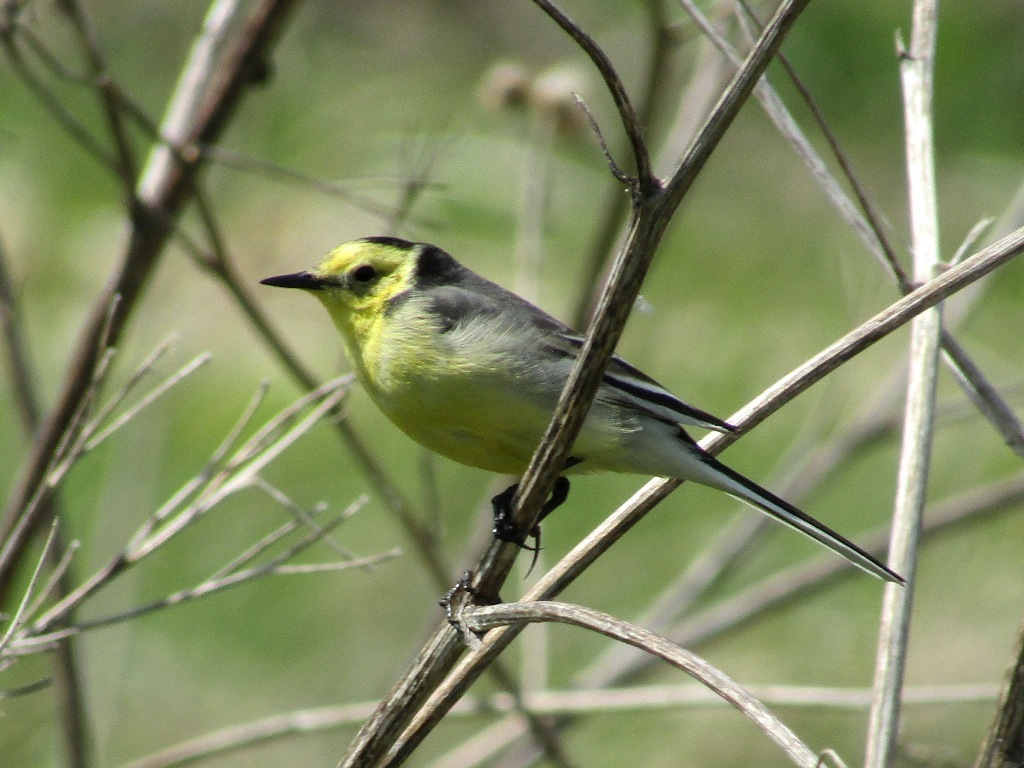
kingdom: Animalia
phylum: Chordata
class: Aves
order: Passeriformes
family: Motacillidae
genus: Motacilla
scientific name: Motacilla citreola
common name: Citrine wagtail
